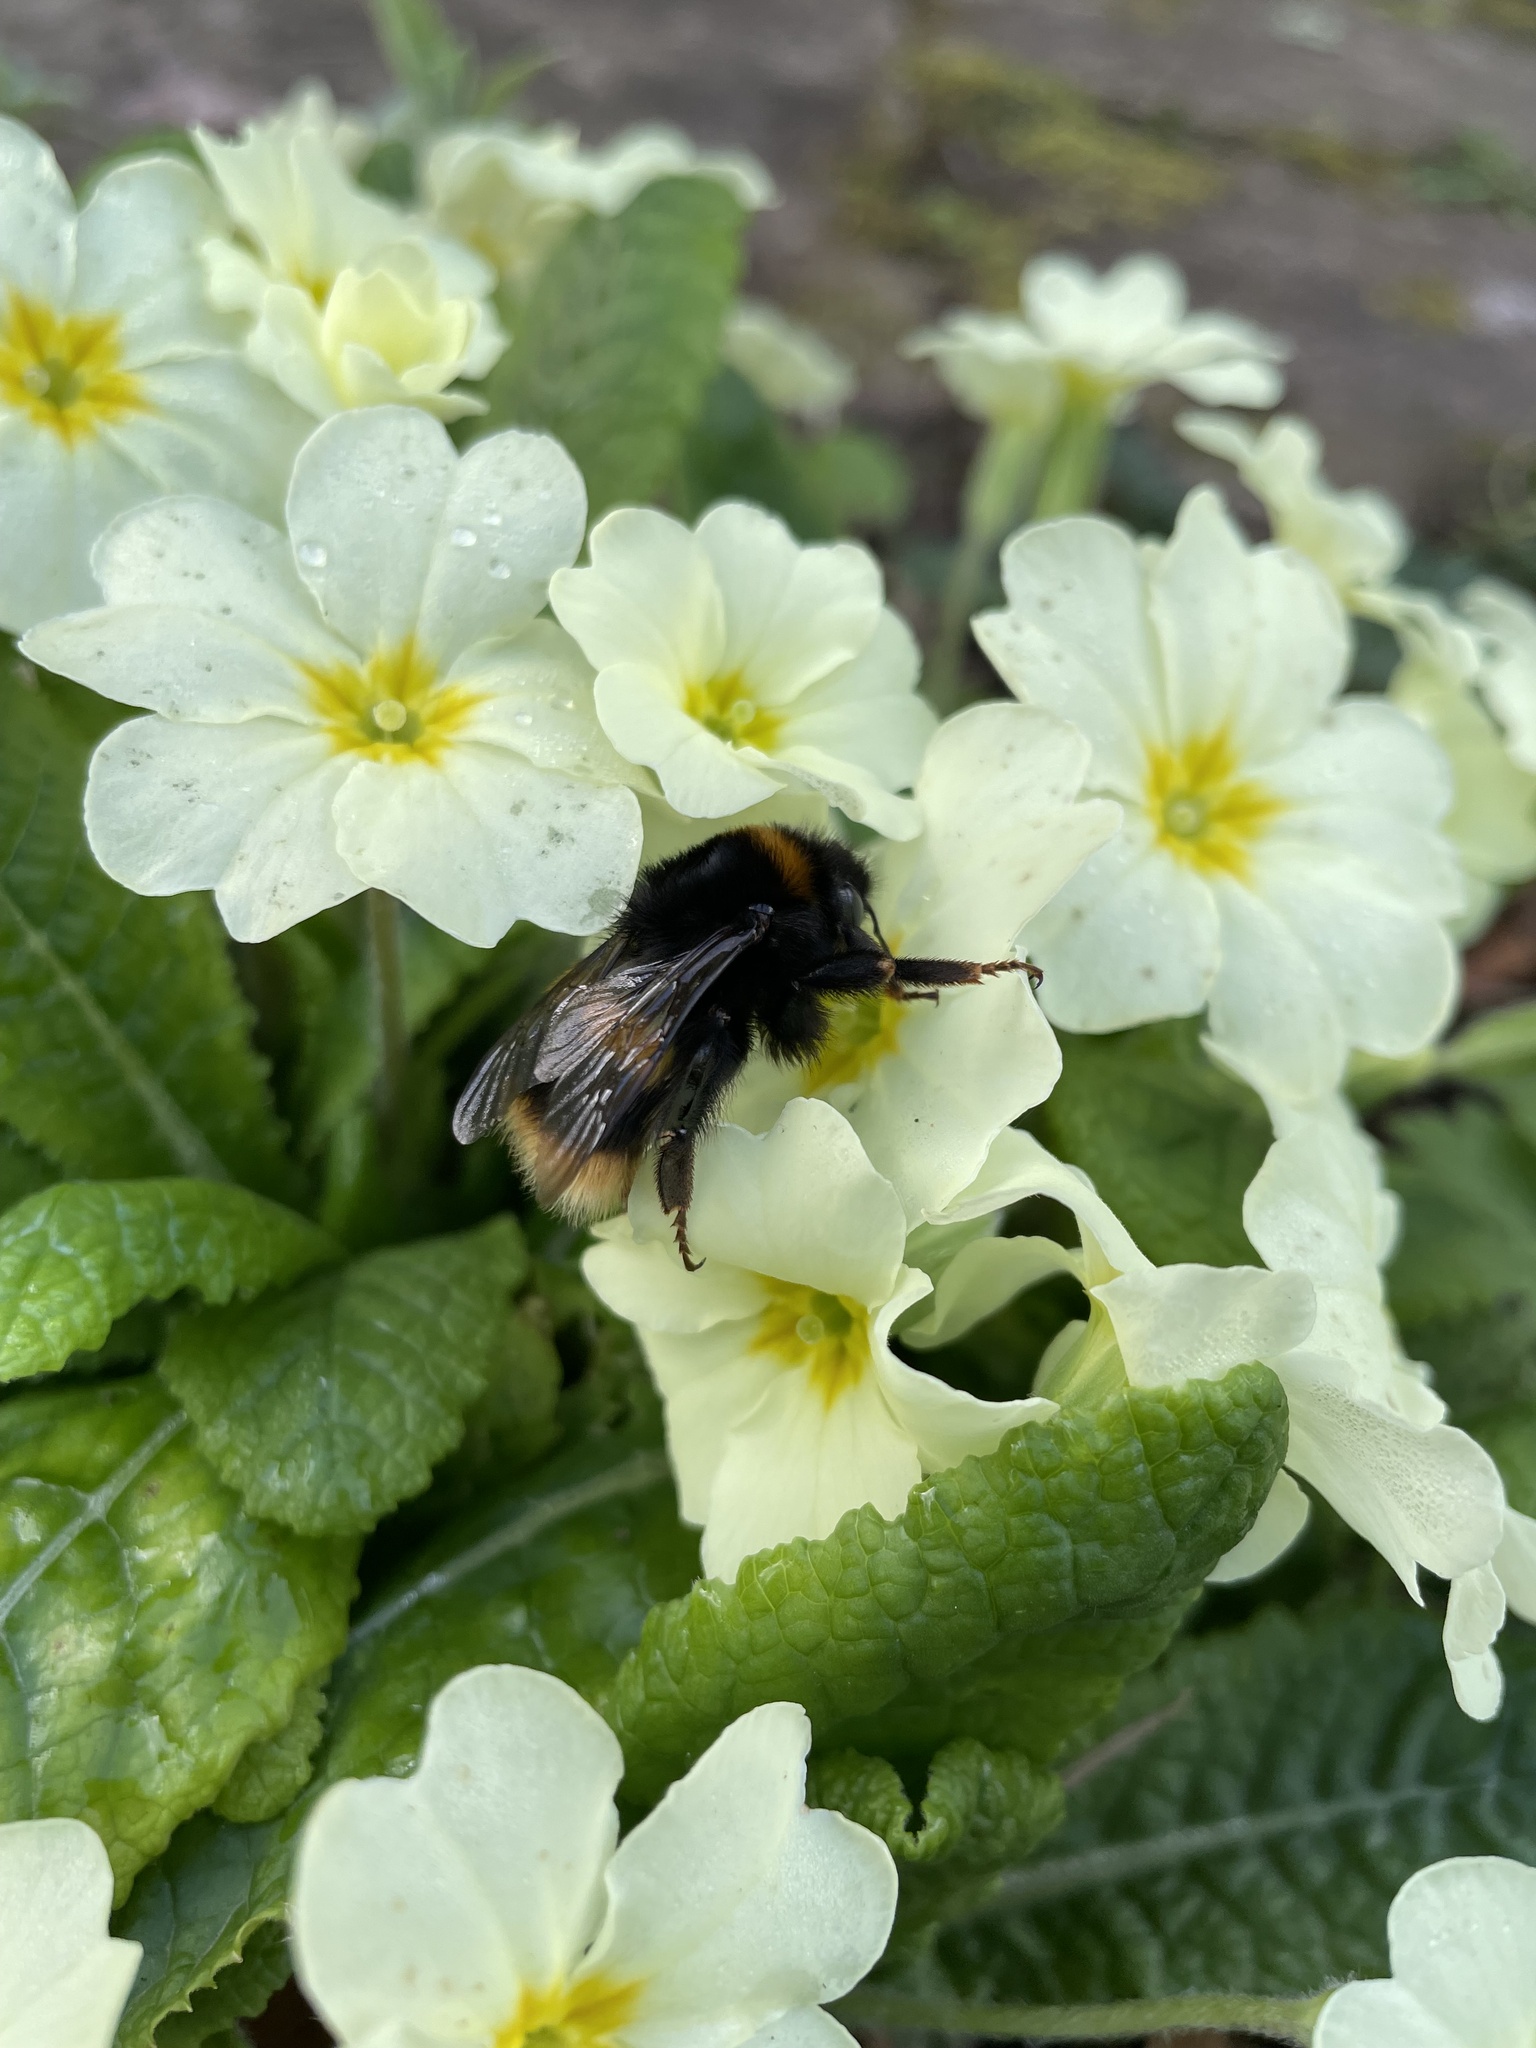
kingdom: Animalia
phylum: Arthropoda
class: Insecta
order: Hymenoptera
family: Apidae
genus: Bombus
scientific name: Bombus terrestris
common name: Buff-tailed bumblebee
